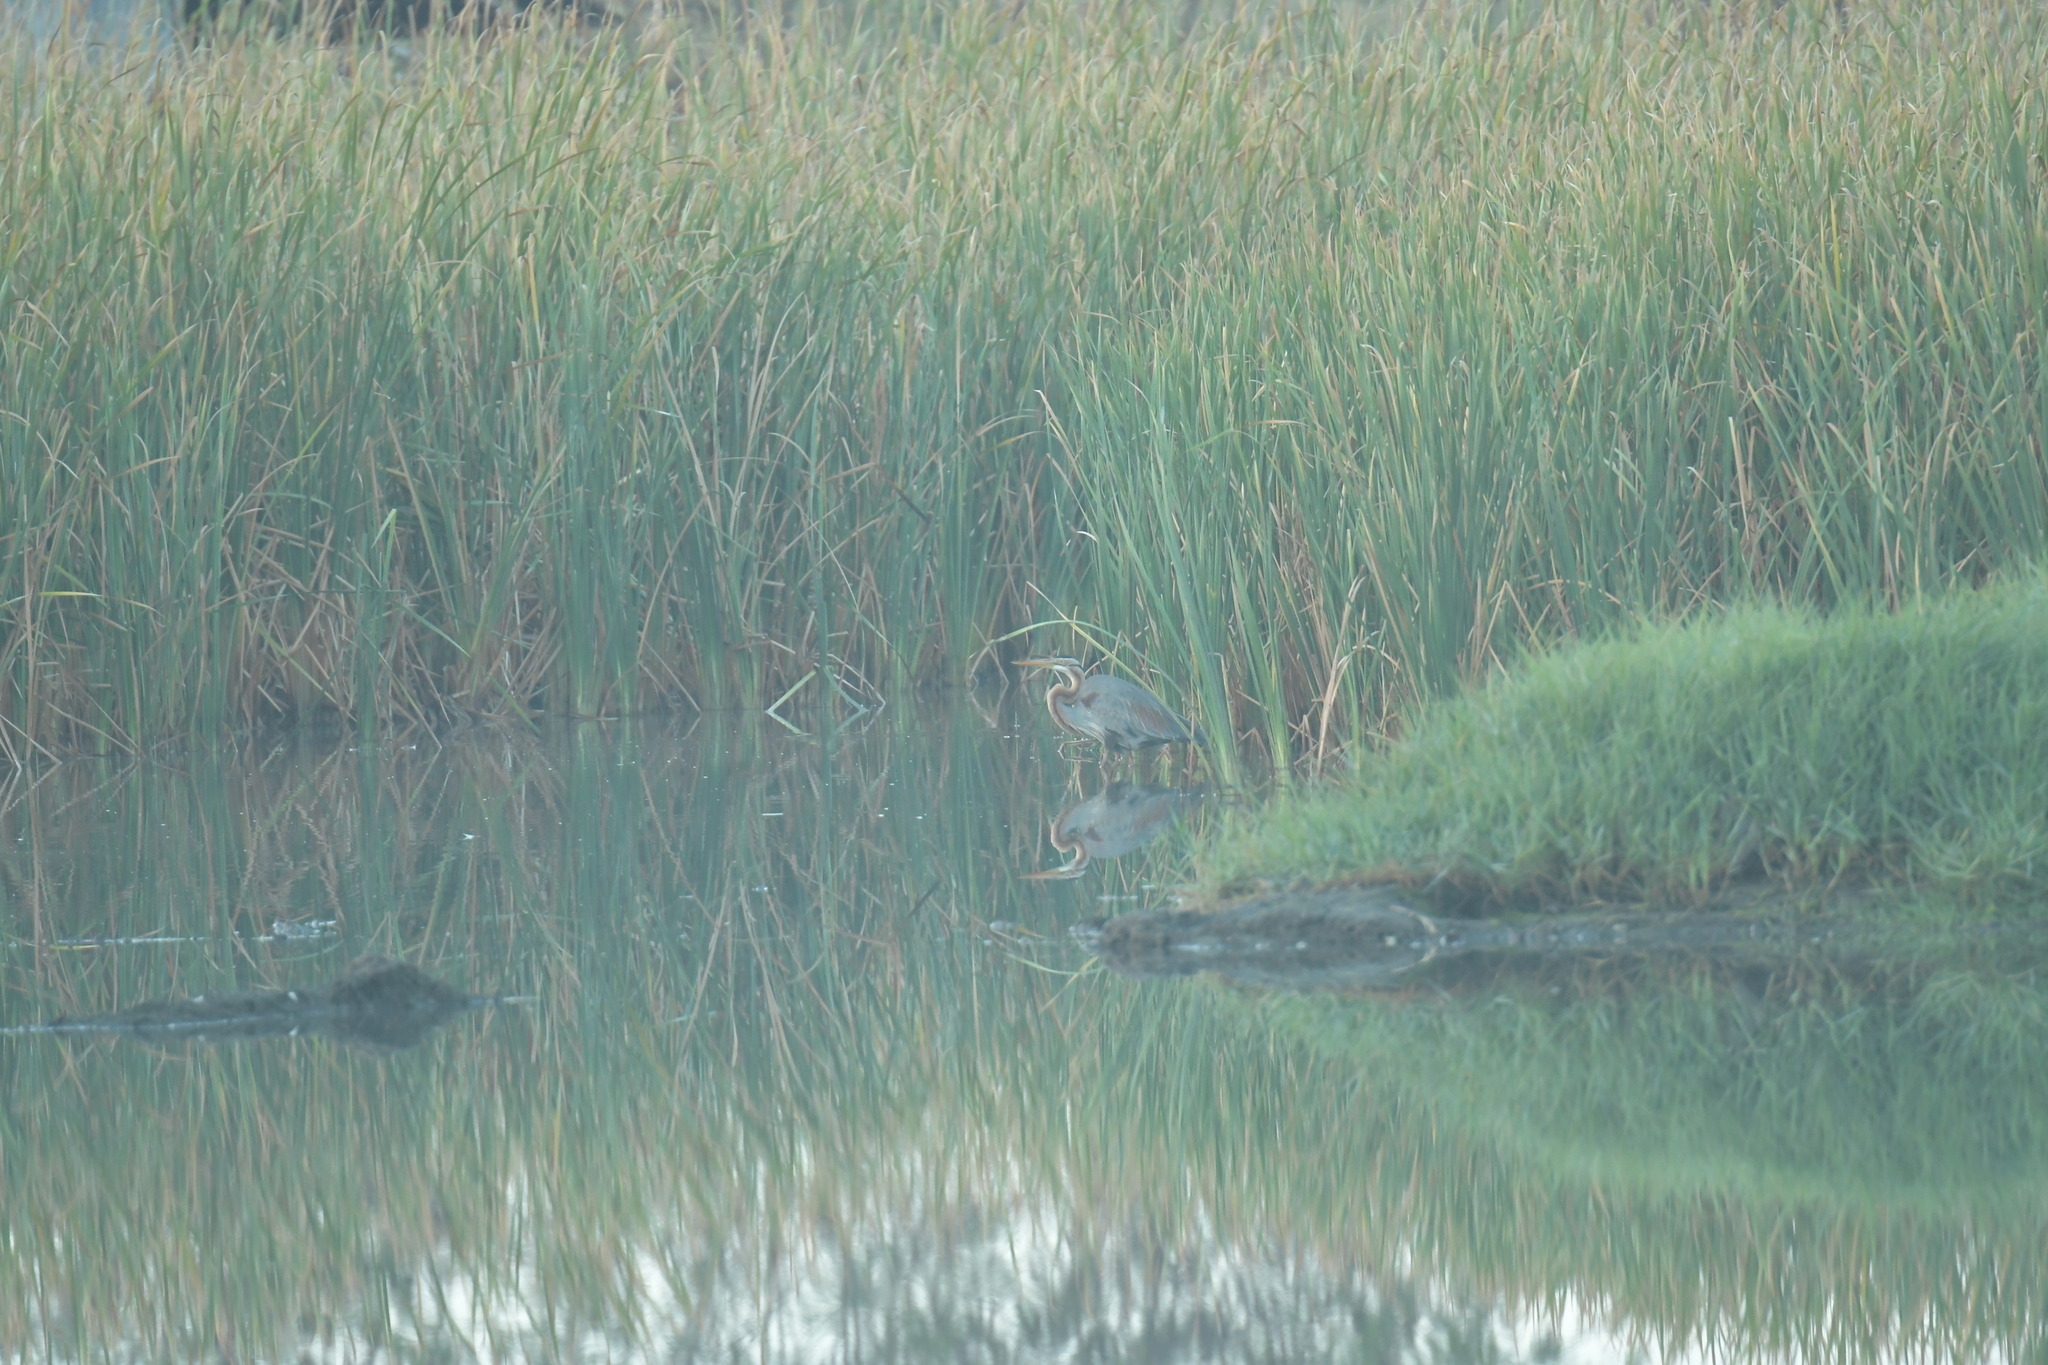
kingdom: Animalia
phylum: Chordata
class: Aves
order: Pelecaniformes
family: Ardeidae
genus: Ardea
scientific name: Ardea purpurea
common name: Purple heron
